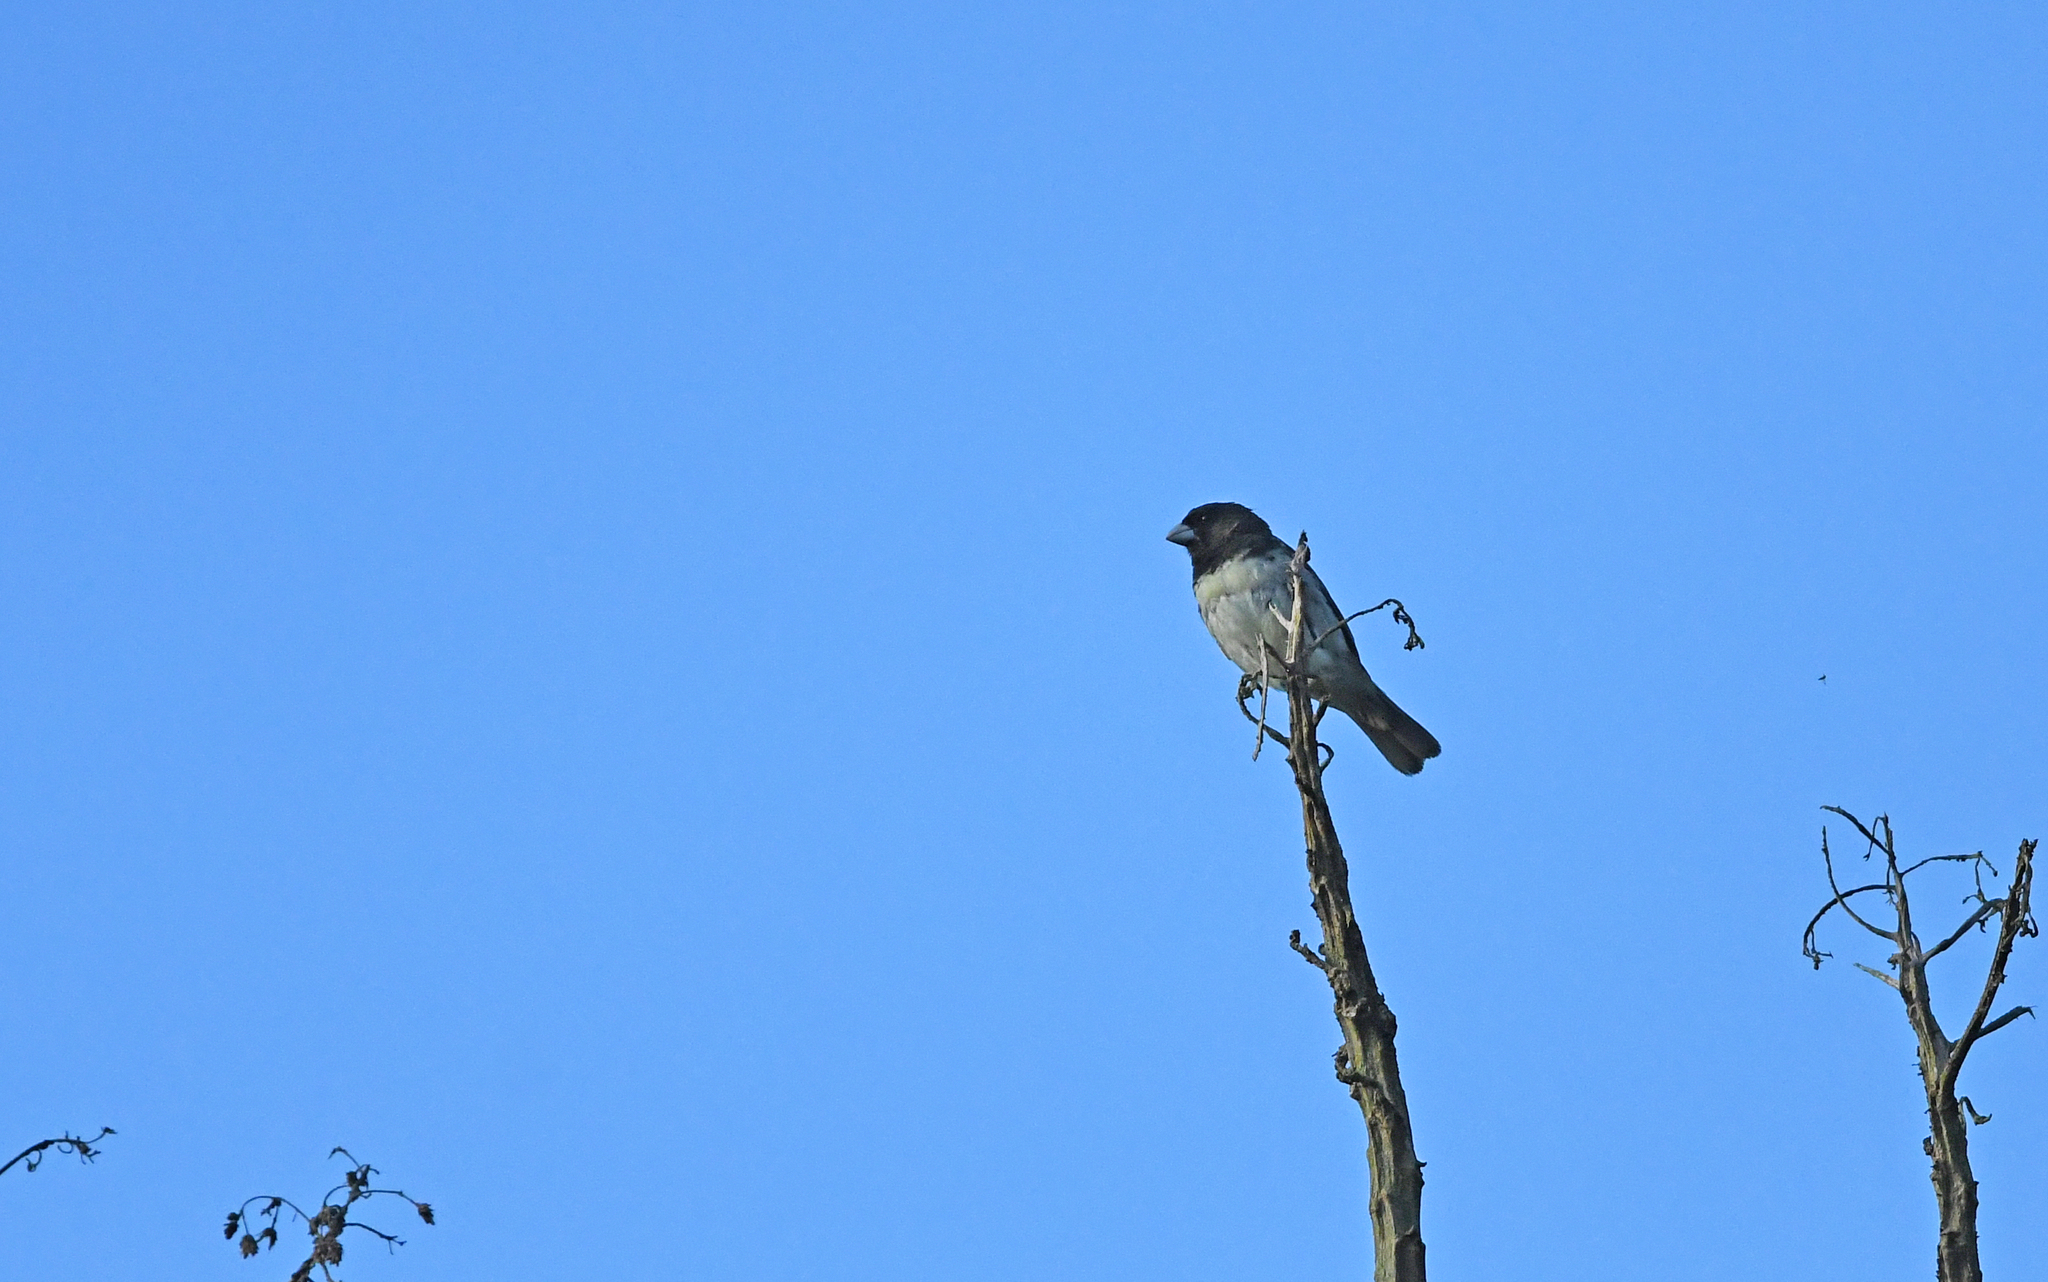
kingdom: Animalia
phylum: Chordata
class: Aves
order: Passeriformes
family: Thraupidae
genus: Sporophila
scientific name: Sporophila nigricollis
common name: Yellow-bellied seedeater
